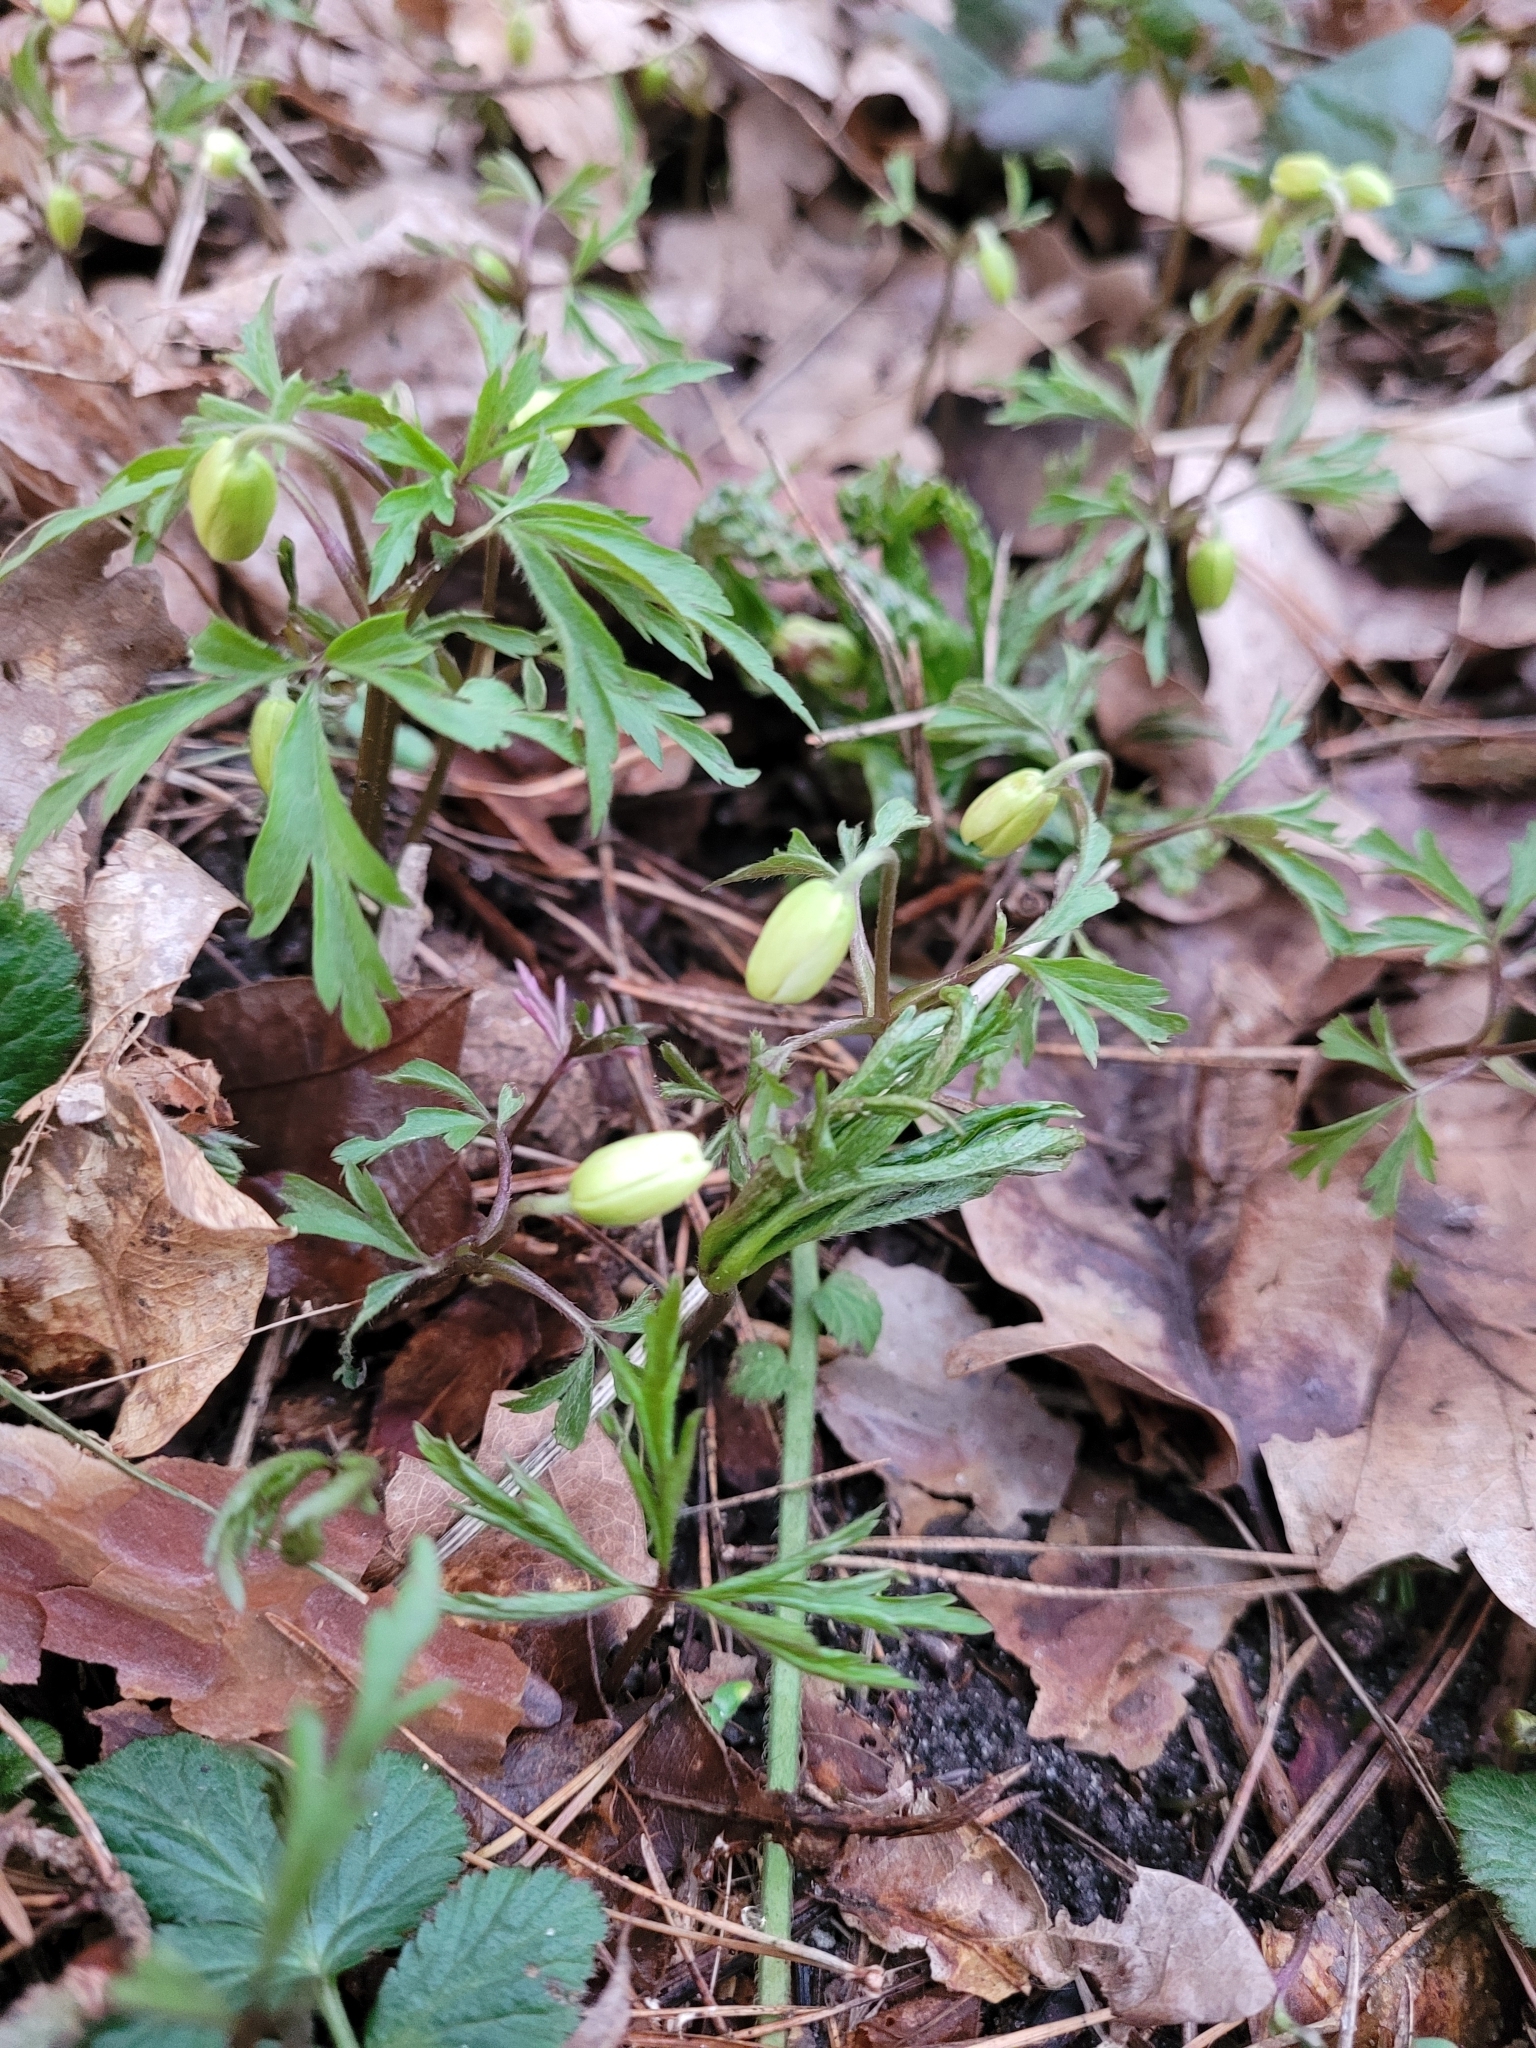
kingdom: Plantae
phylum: Tracheophyta
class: Magnoliopsida
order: Ranunculales
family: Ranunculaceae
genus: Anemone
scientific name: Anemone nemorosa
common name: Wood anemone
